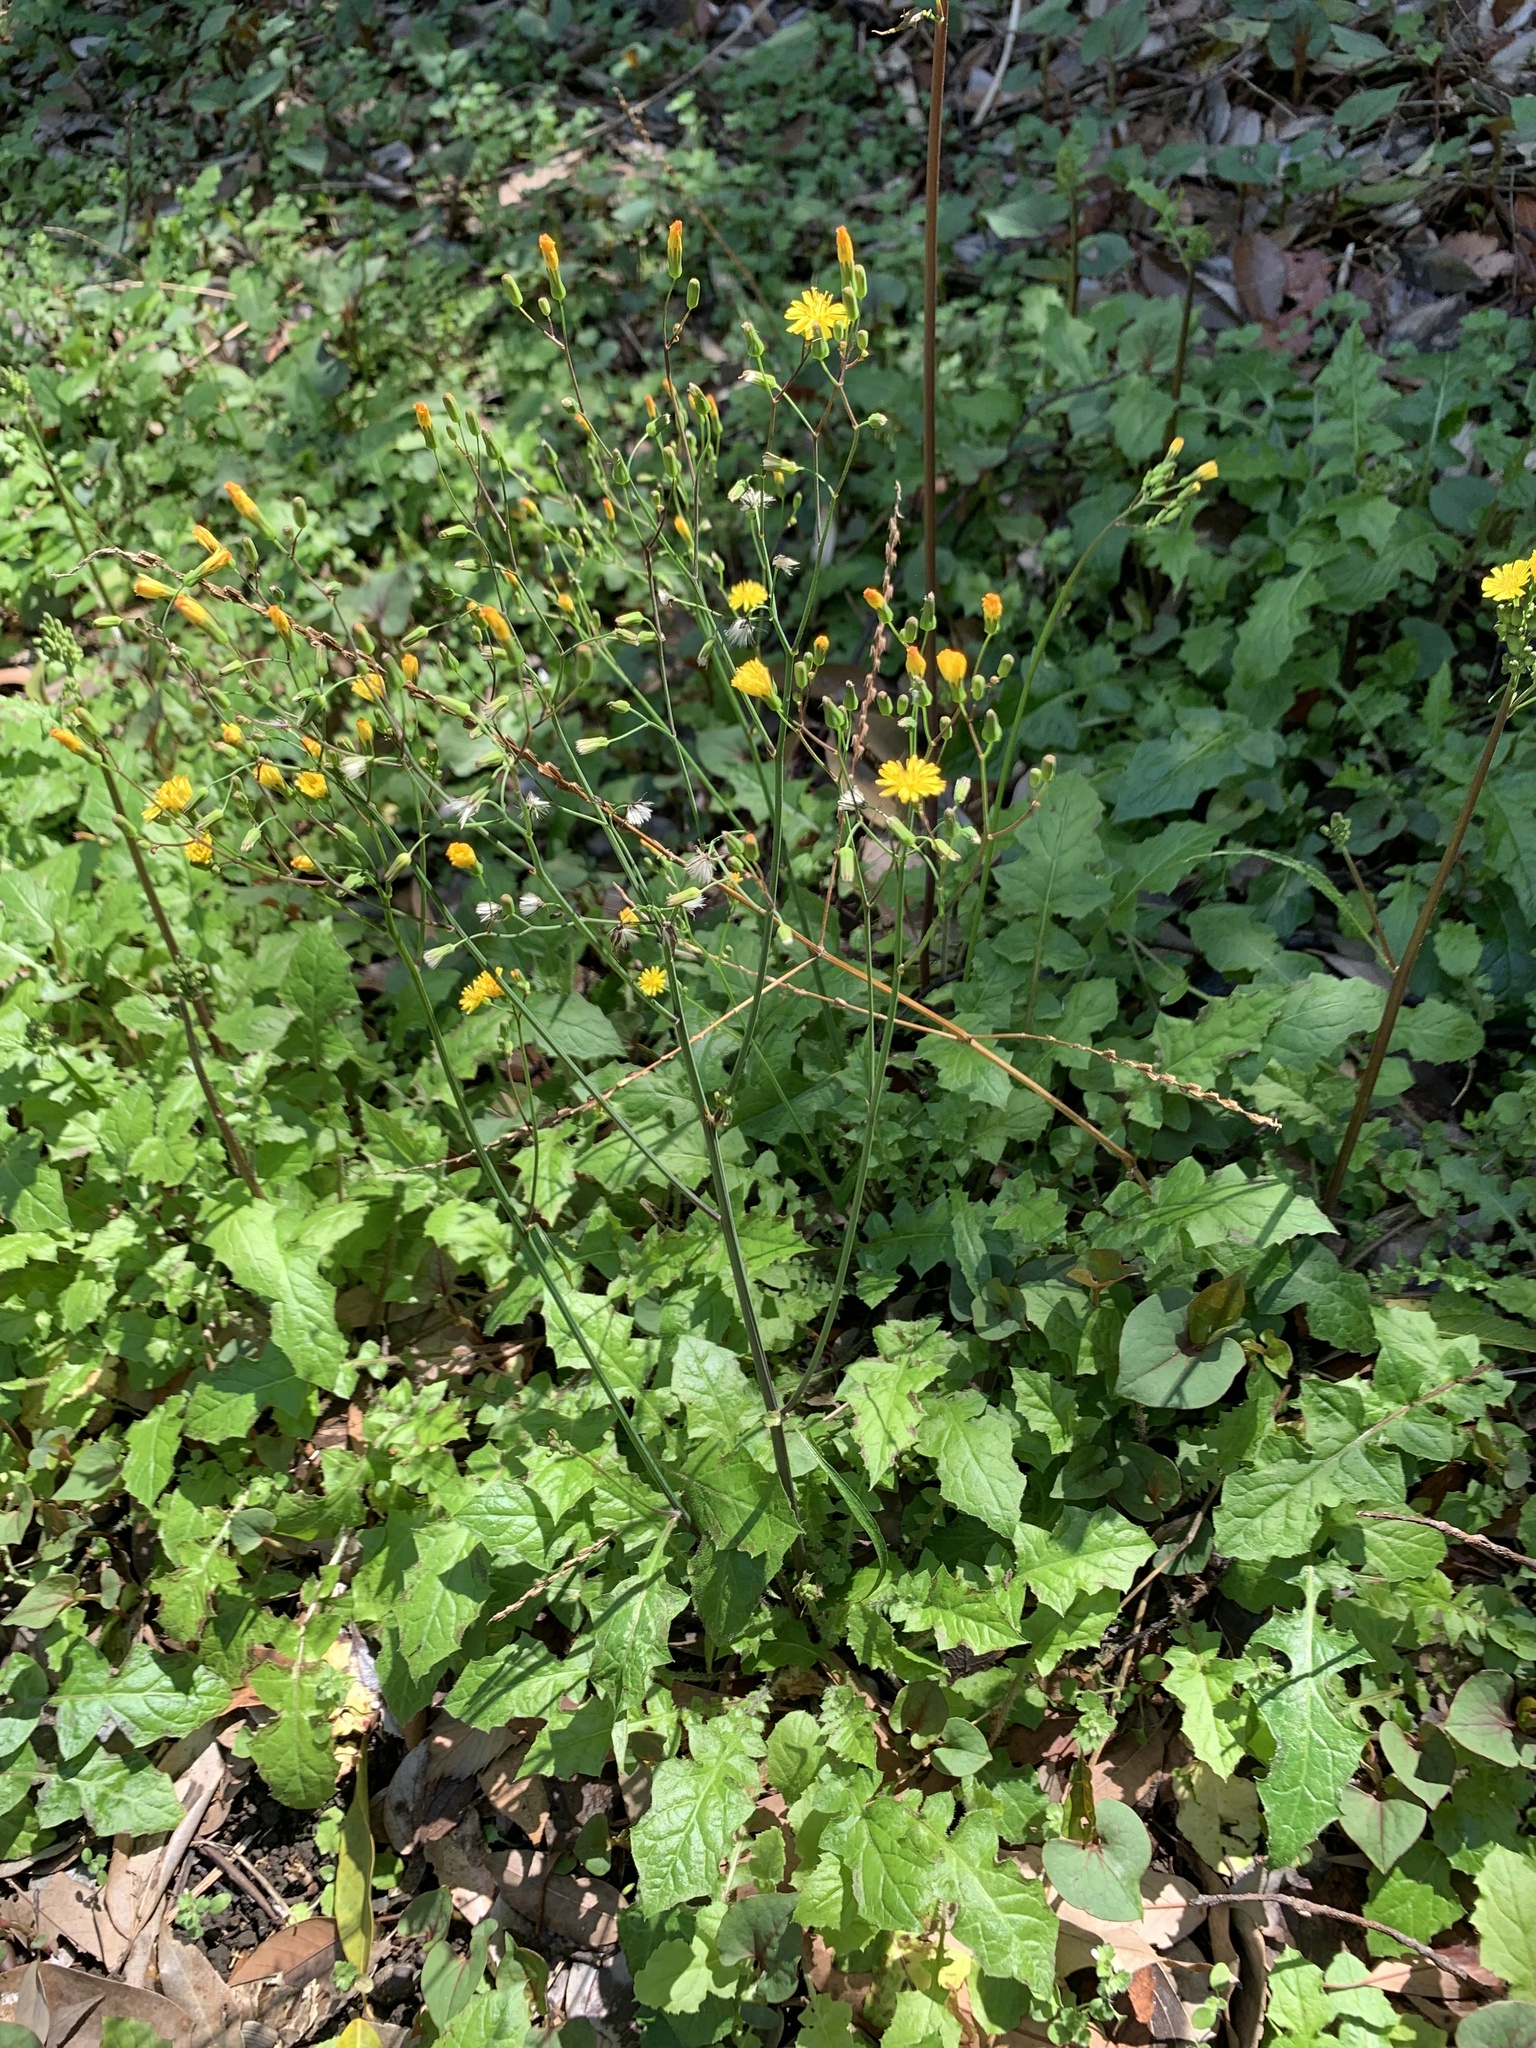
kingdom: Plantae
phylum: Tracheophyta
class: Magnoliopsida
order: Asterales
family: Asteraceae
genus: Youngia
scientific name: Youngia japonica
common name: Oriental false hawksbeard
